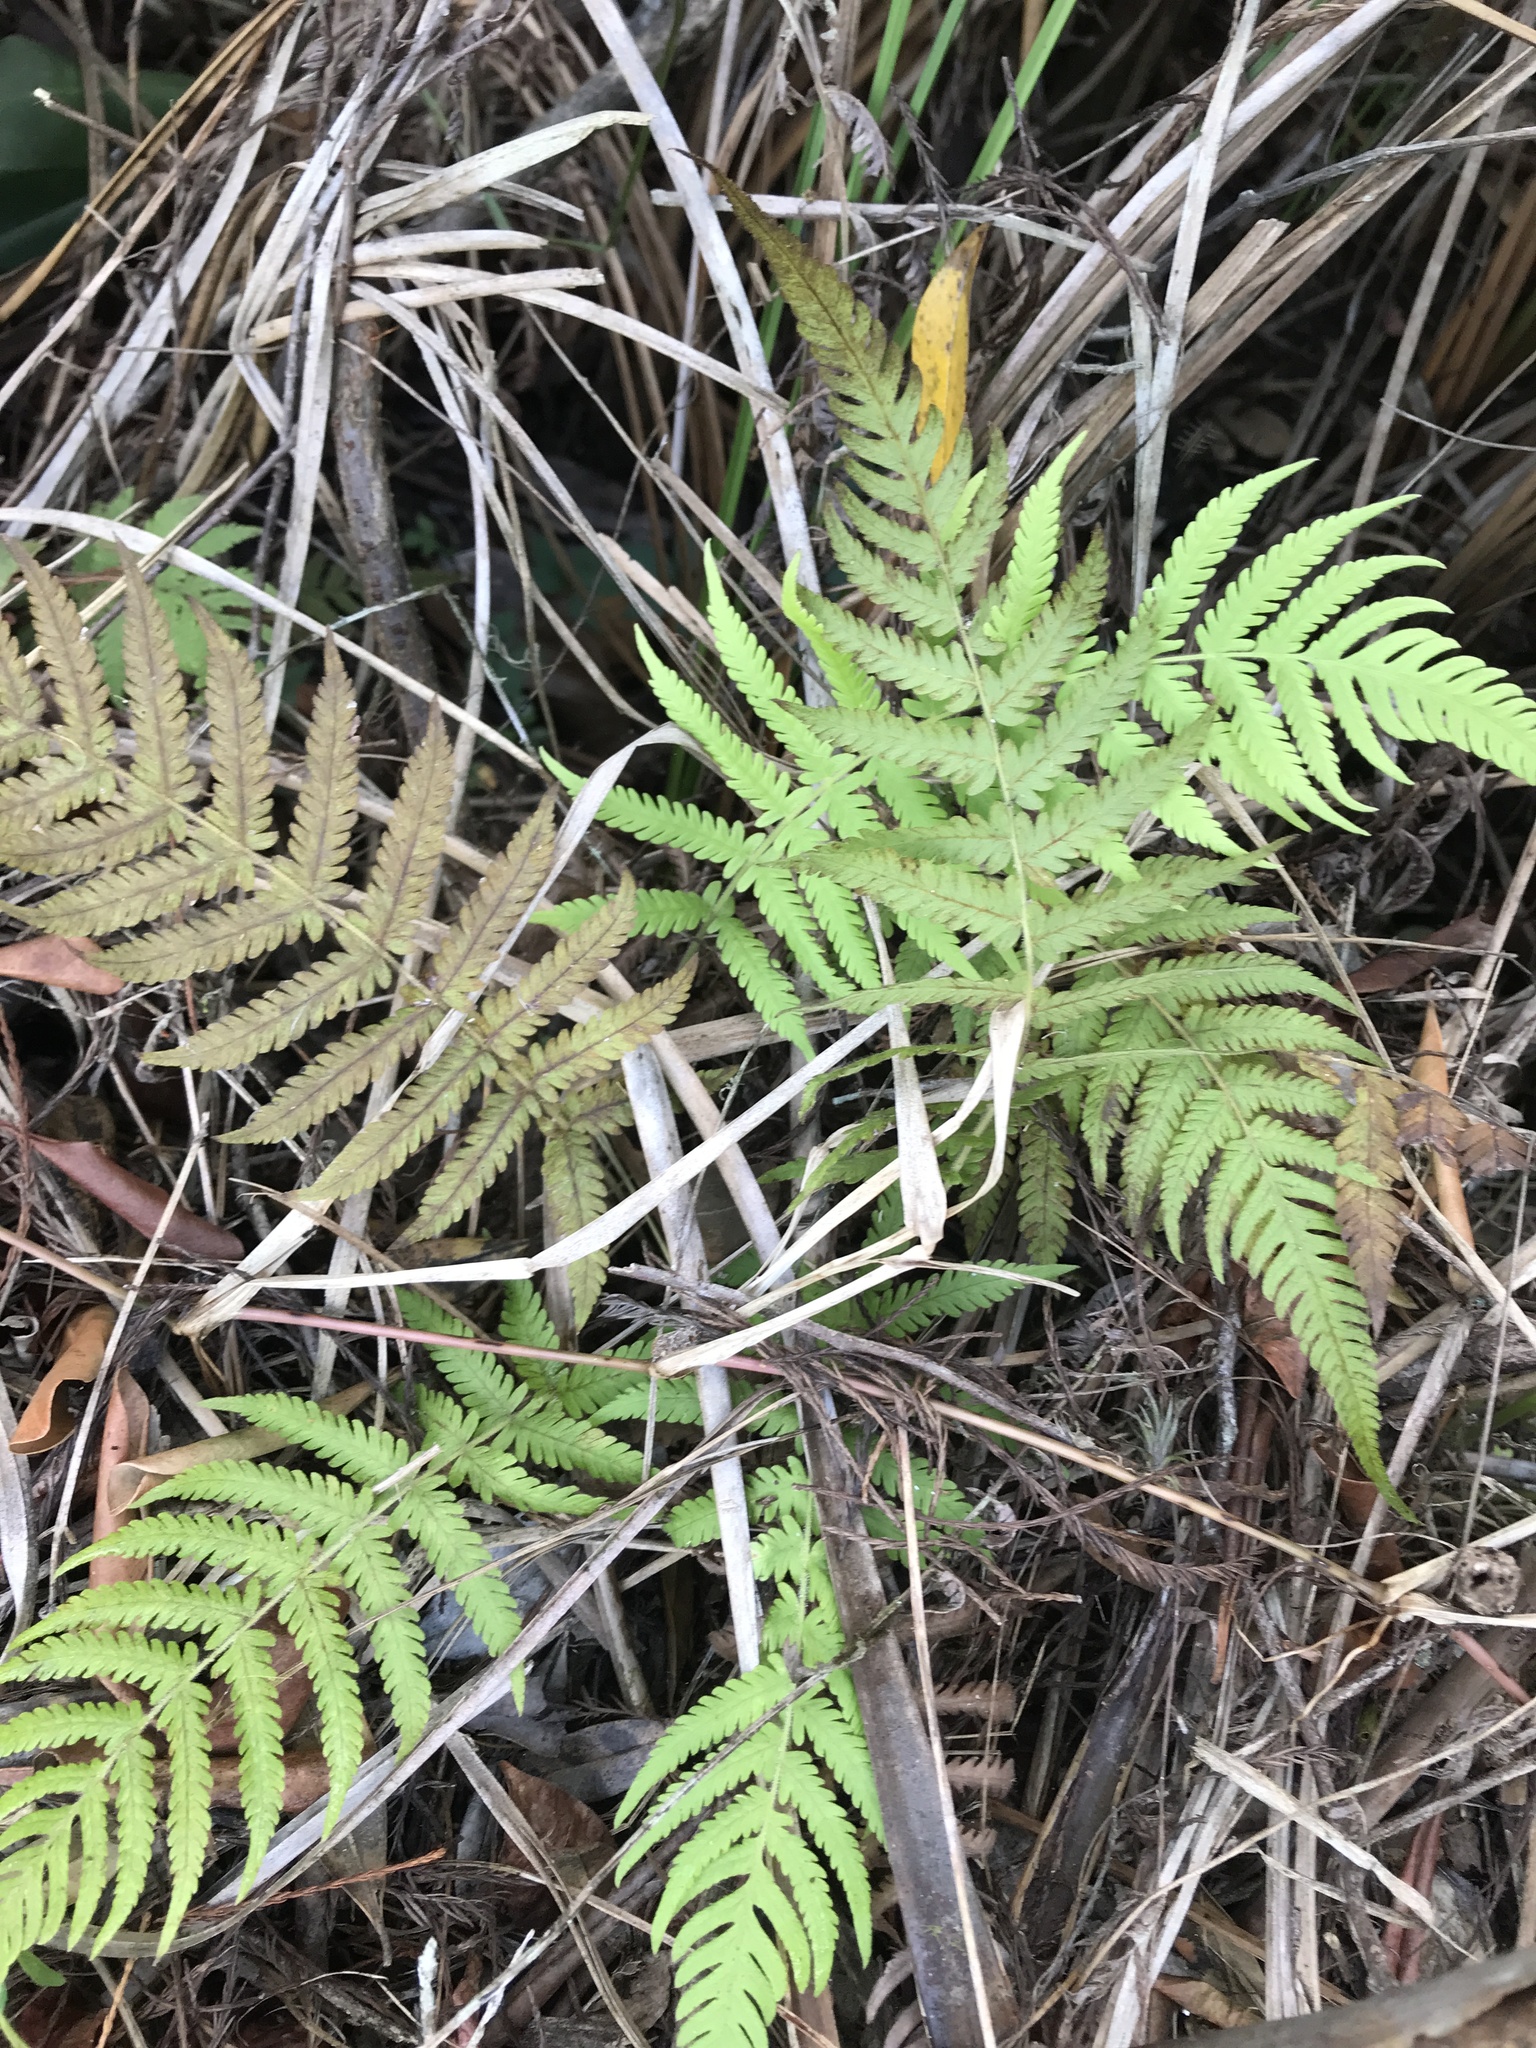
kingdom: Plantae
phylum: Tracheophyta
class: Polypodiopsida
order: Polypodiales
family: Thelypteridaceae
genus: Pelazoneuron
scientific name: Pelazoneuron kunthii
